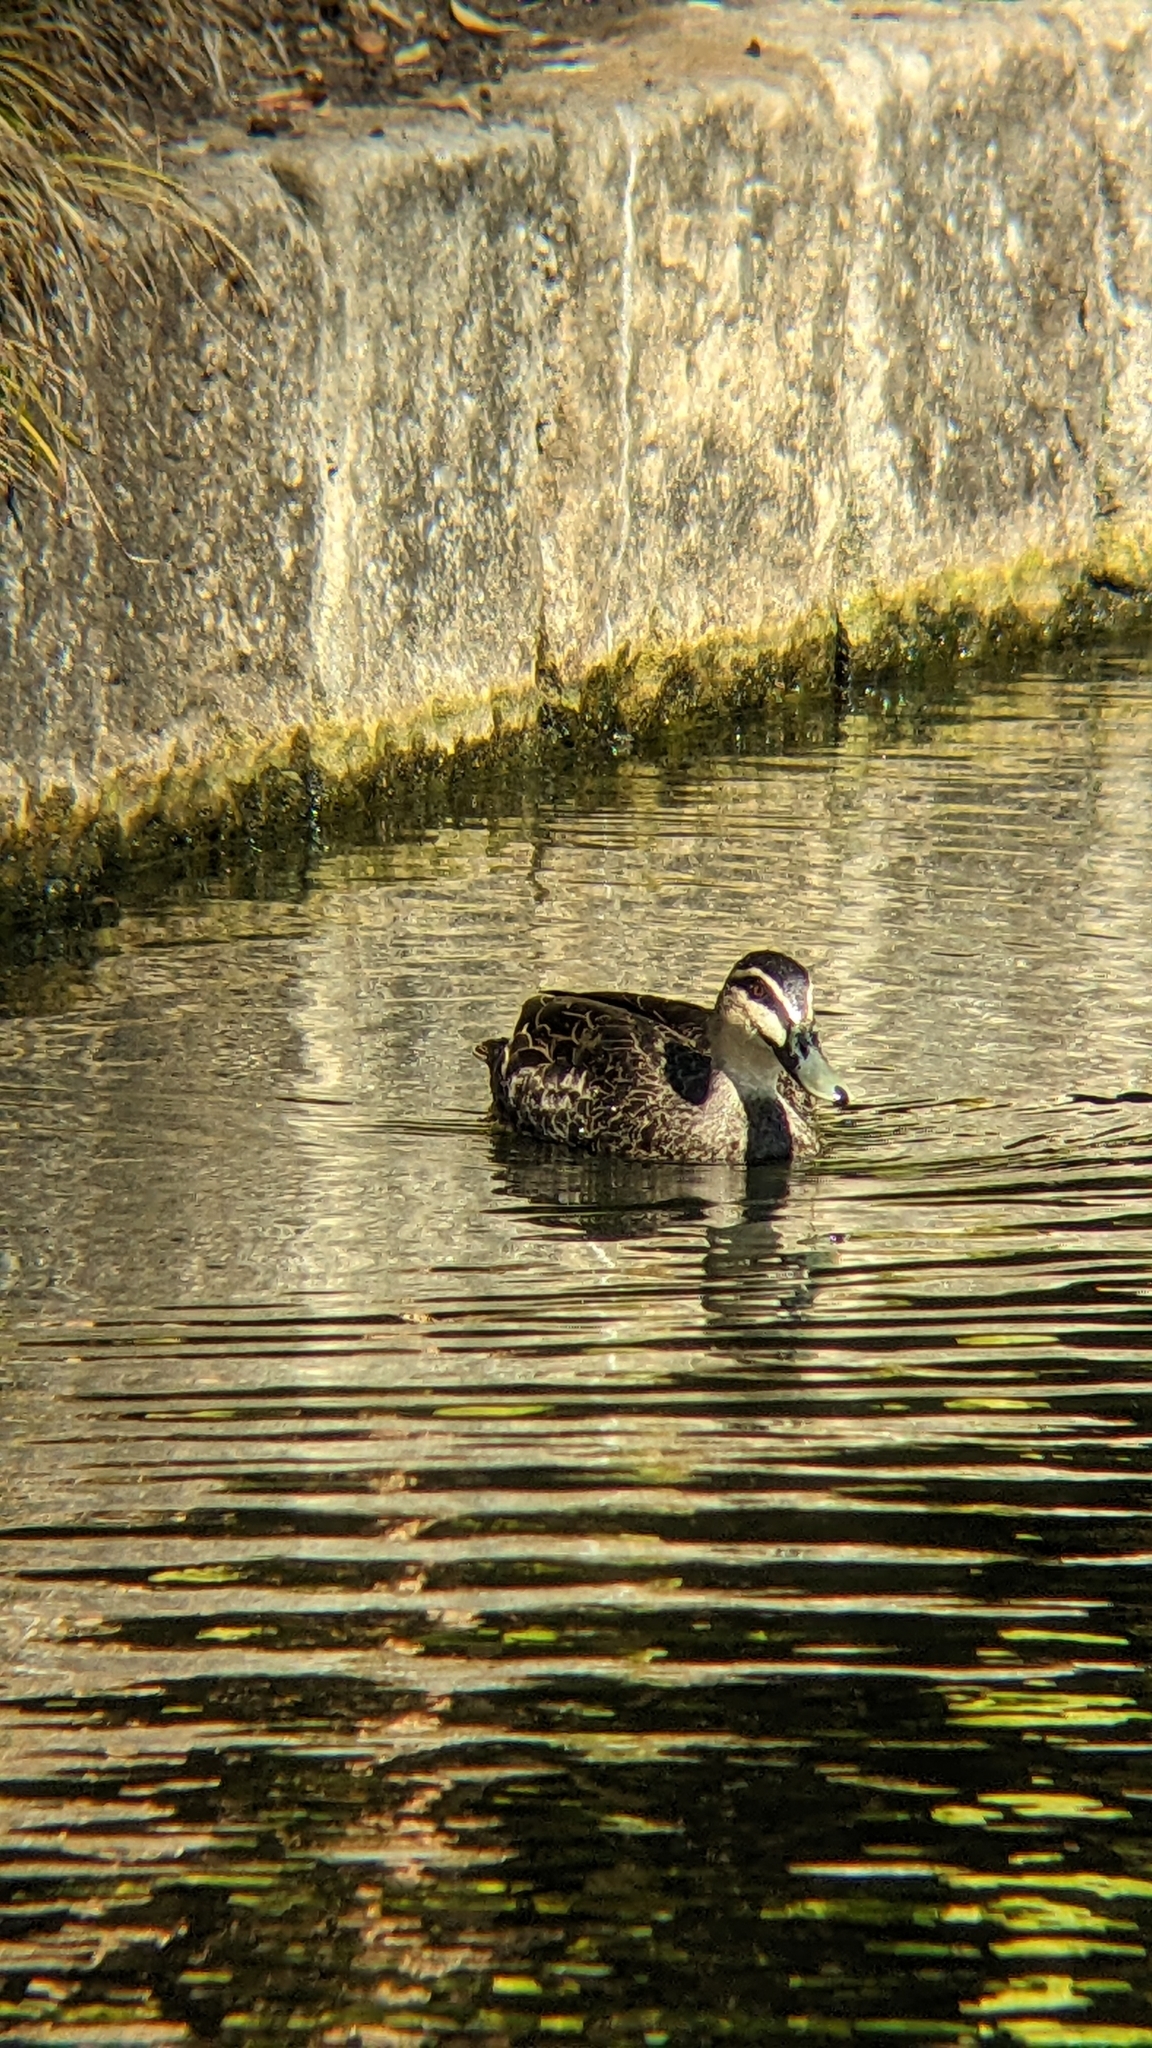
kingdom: Animalia
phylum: Chordata
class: Aves
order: Anseriformes
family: Anatidae
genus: Anas
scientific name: Anas superciliosa
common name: Pacific black duck
